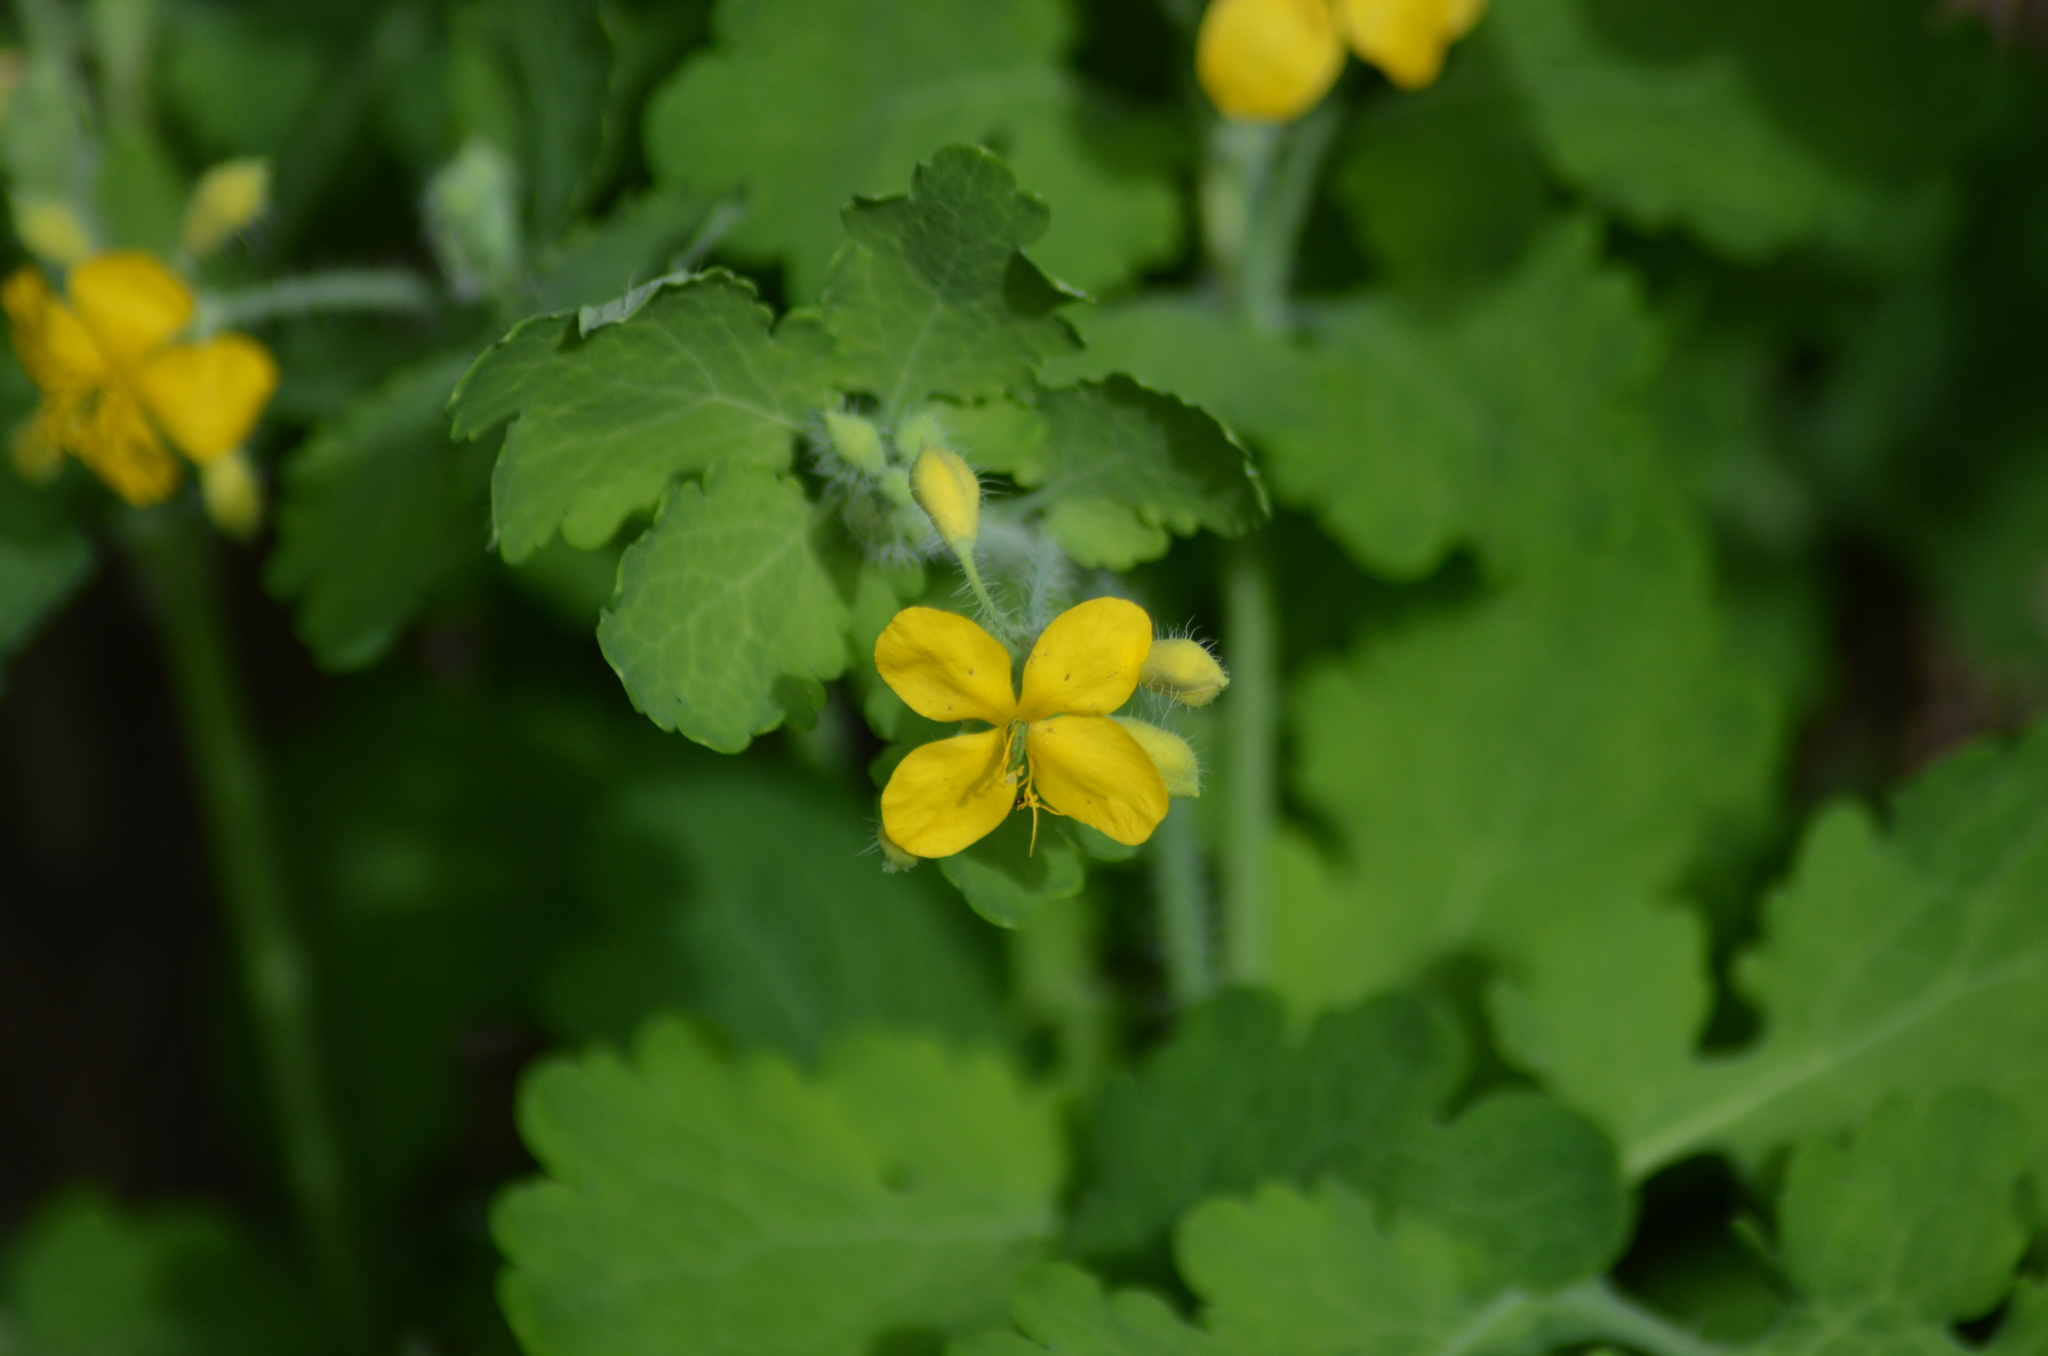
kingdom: Plantae
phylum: Tracheophyta
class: Magnoliopsida
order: Ranunculales
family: Papaveraceae
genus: Chelidonium
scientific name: Chelidonium majus
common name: Greater celandine
